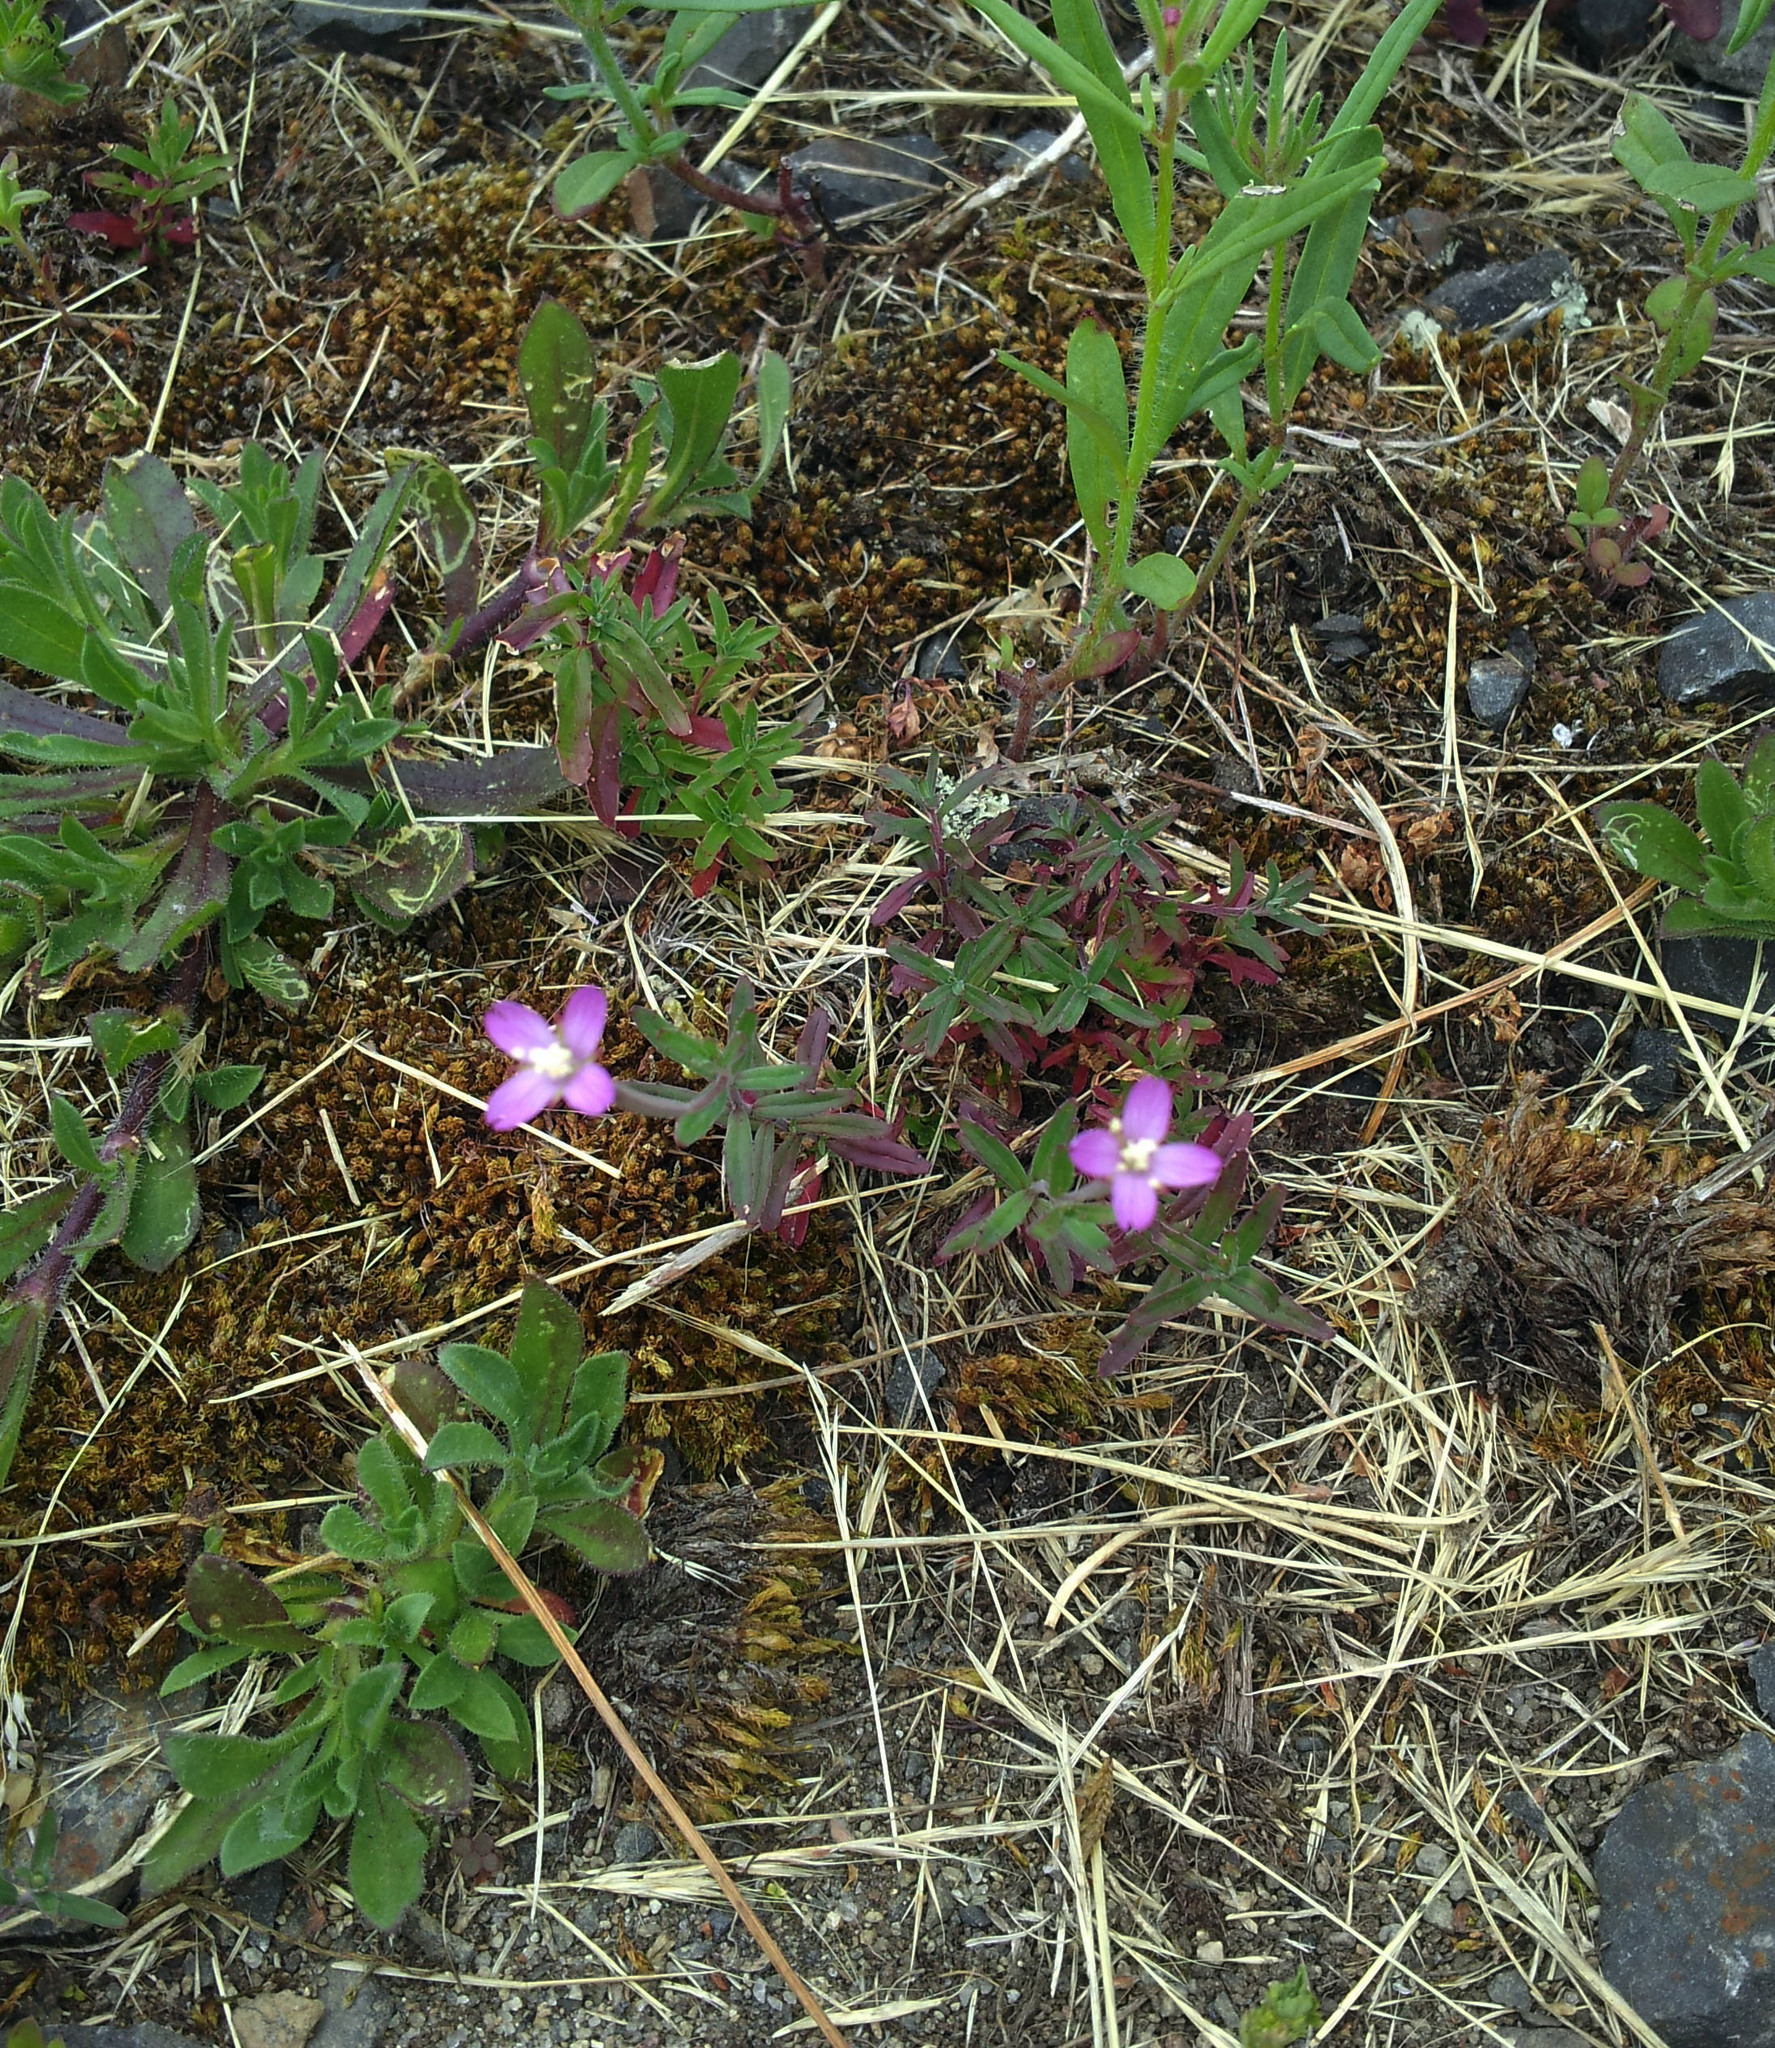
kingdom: Plantae
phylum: Tracheophyta
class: Magnoliopsida
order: Myrtales
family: Onagraceae
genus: Epilobium
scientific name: Epilobium billardierianum
